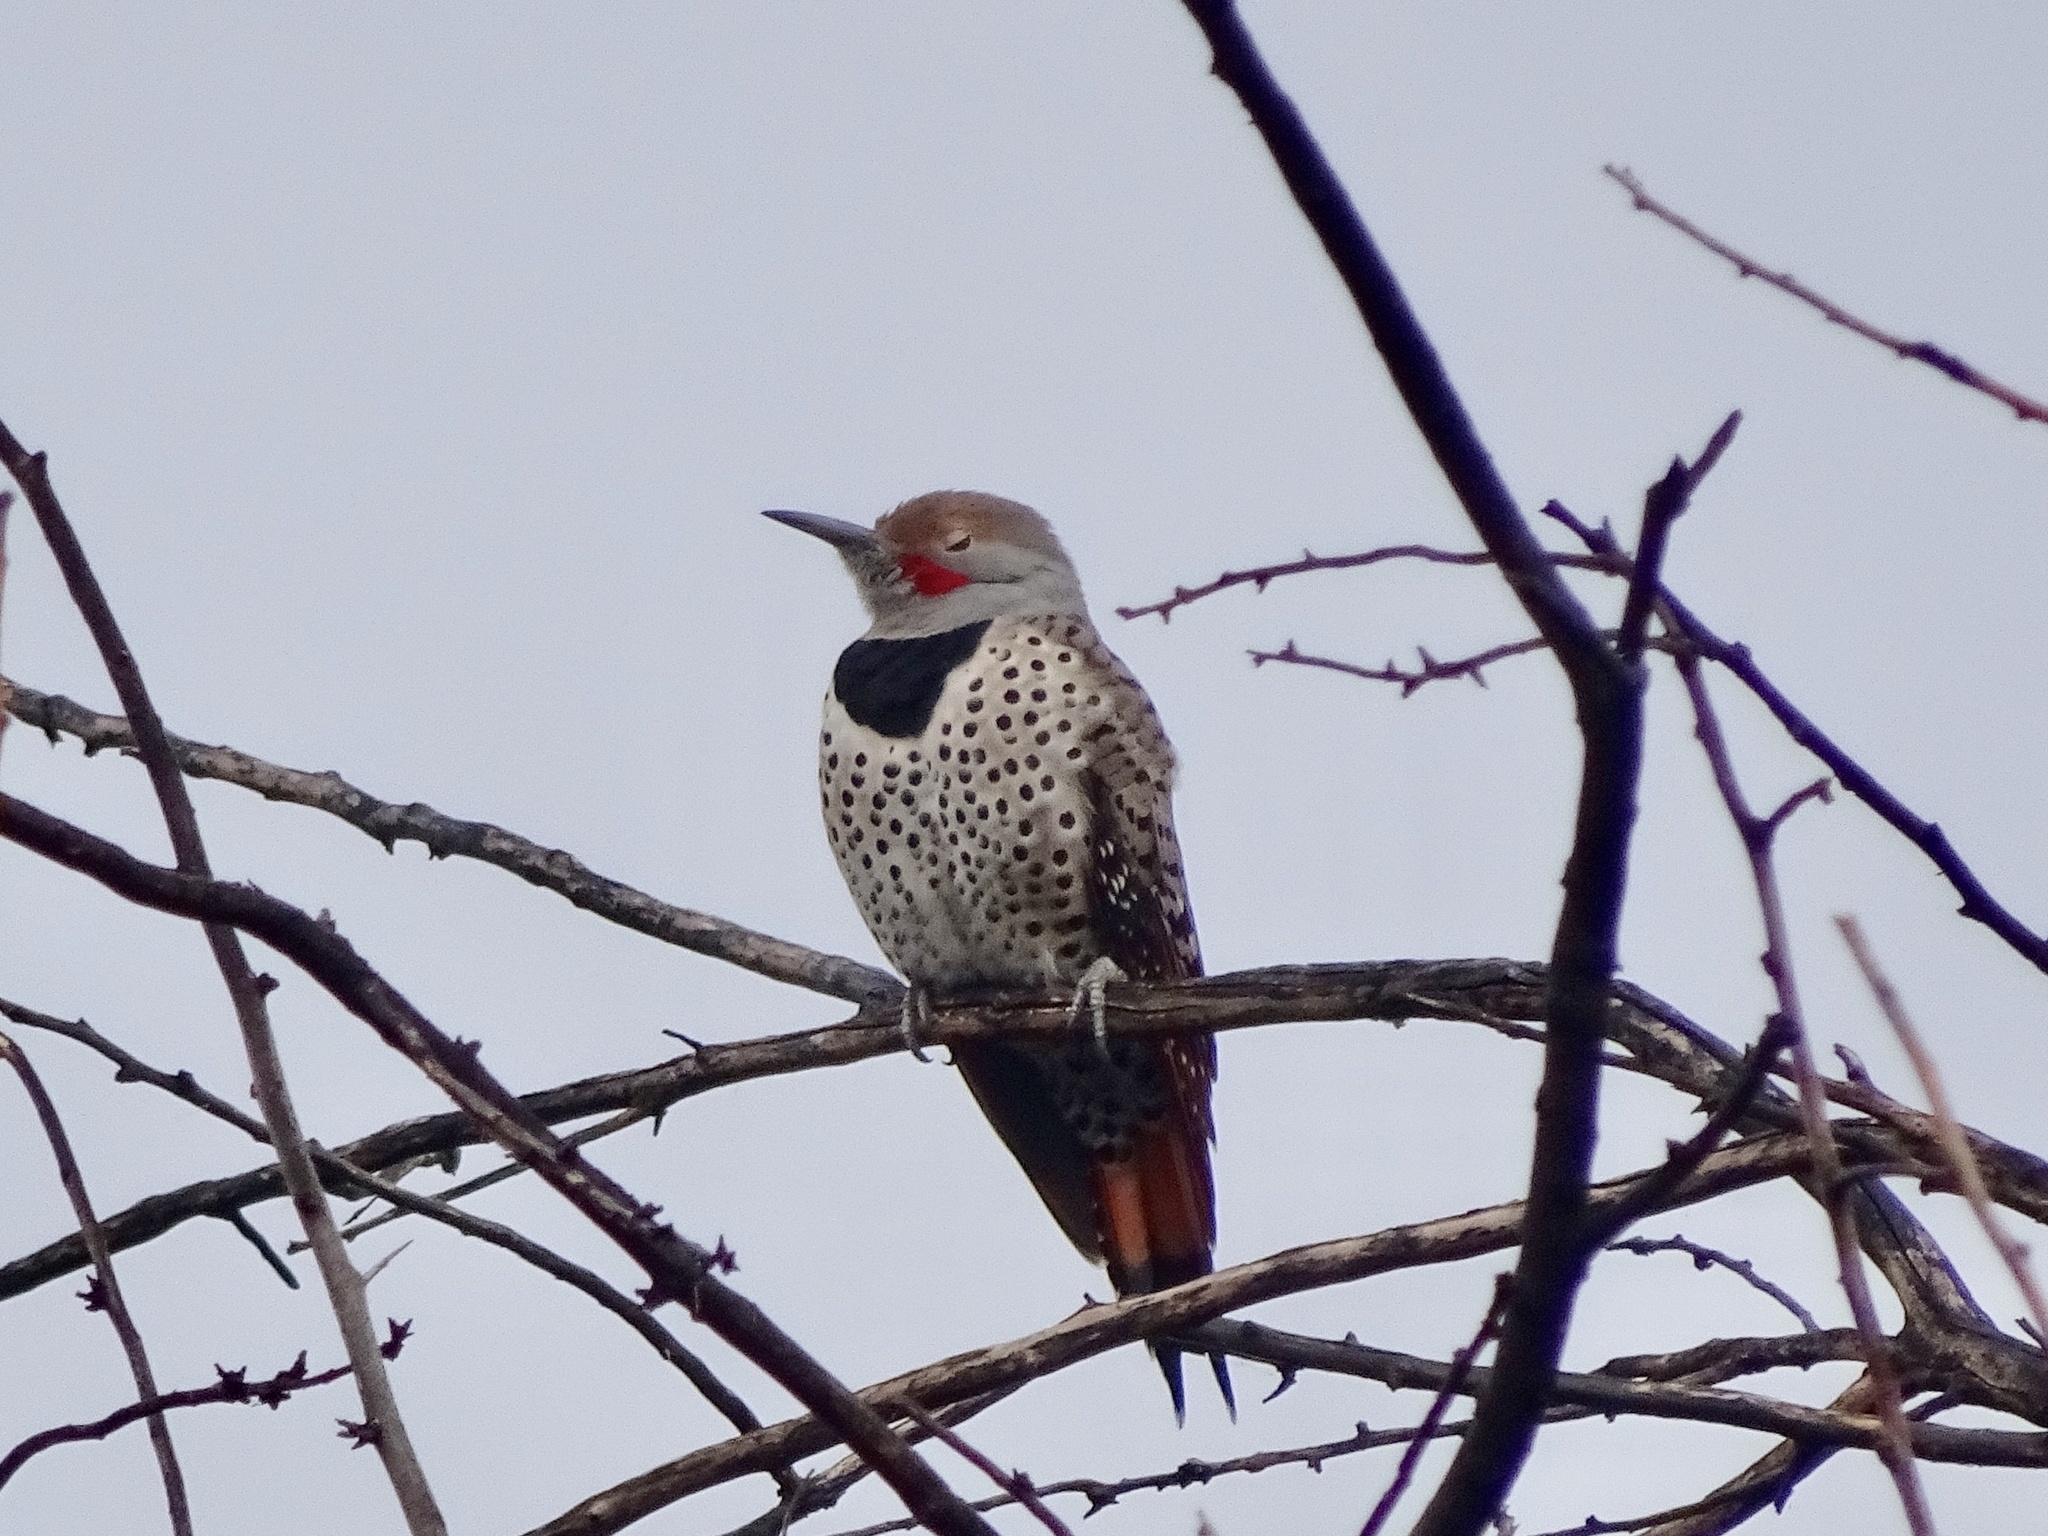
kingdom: Animalia
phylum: Chordata
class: Aves
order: Piciformes
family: Picidae
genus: Colaptes
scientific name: Colaptes auratus
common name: Northern flicker
